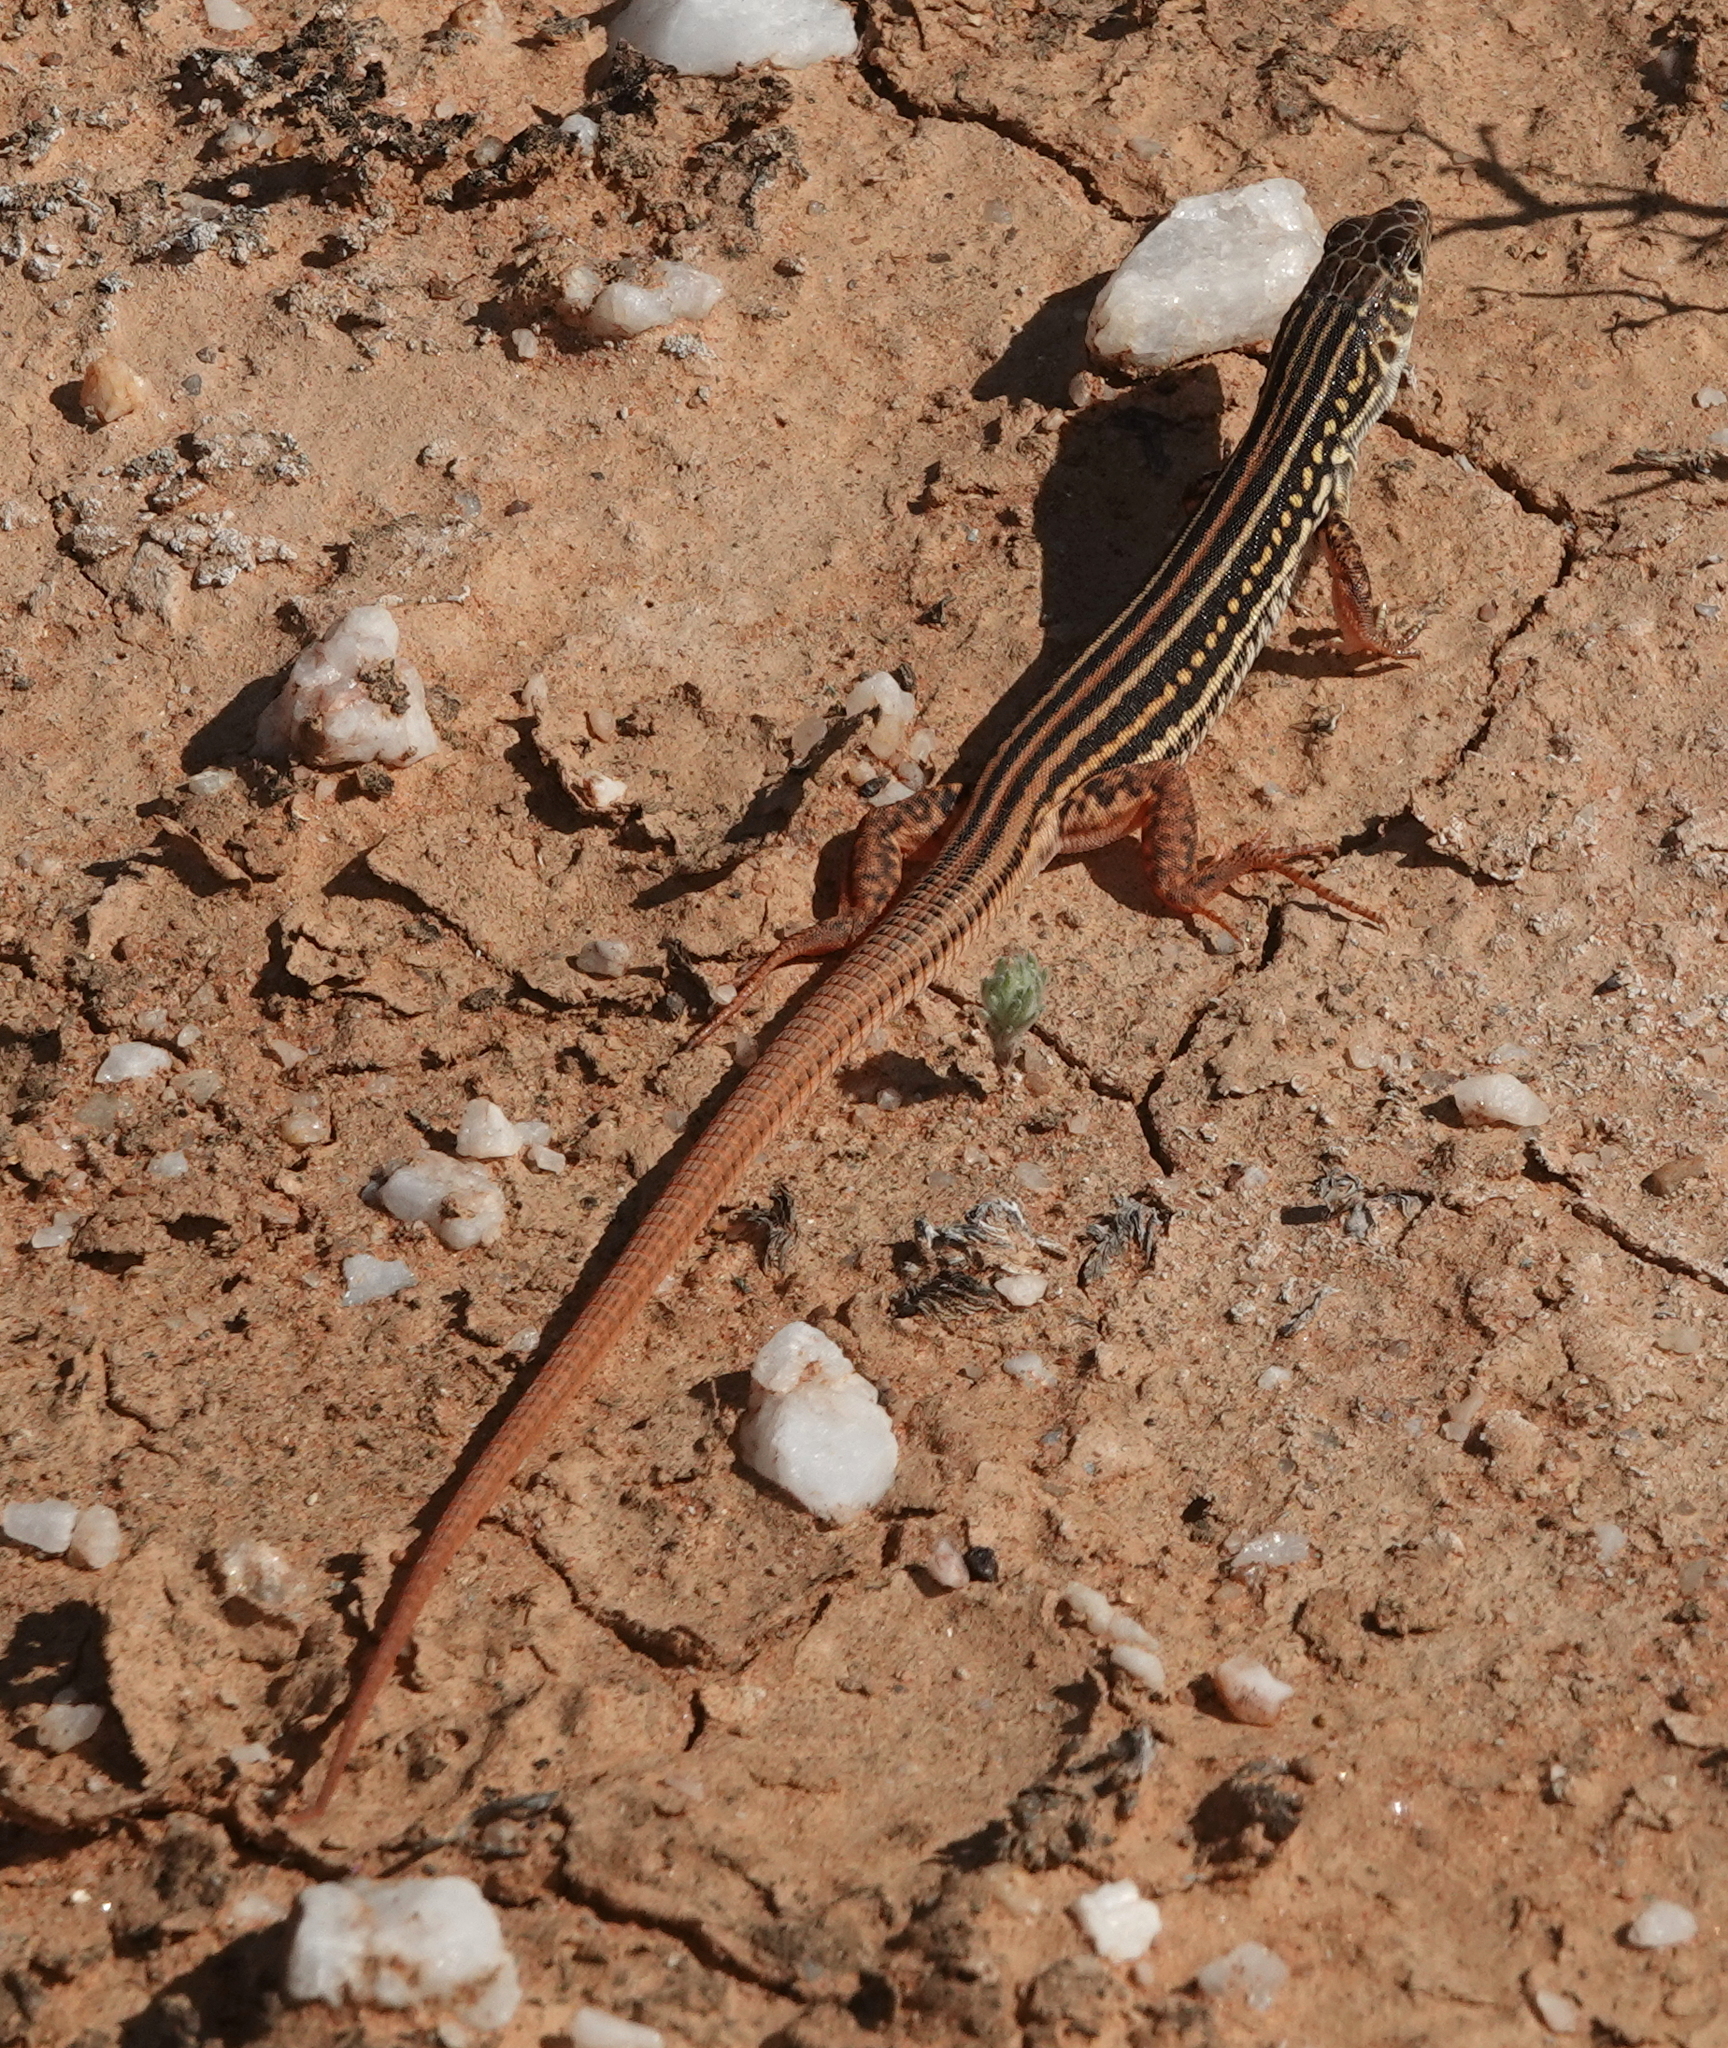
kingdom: Animalia
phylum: Chordata
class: Squamata
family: Lacertidae
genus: Nucras
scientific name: Nucras tessellata
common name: Western sandveld lizard
